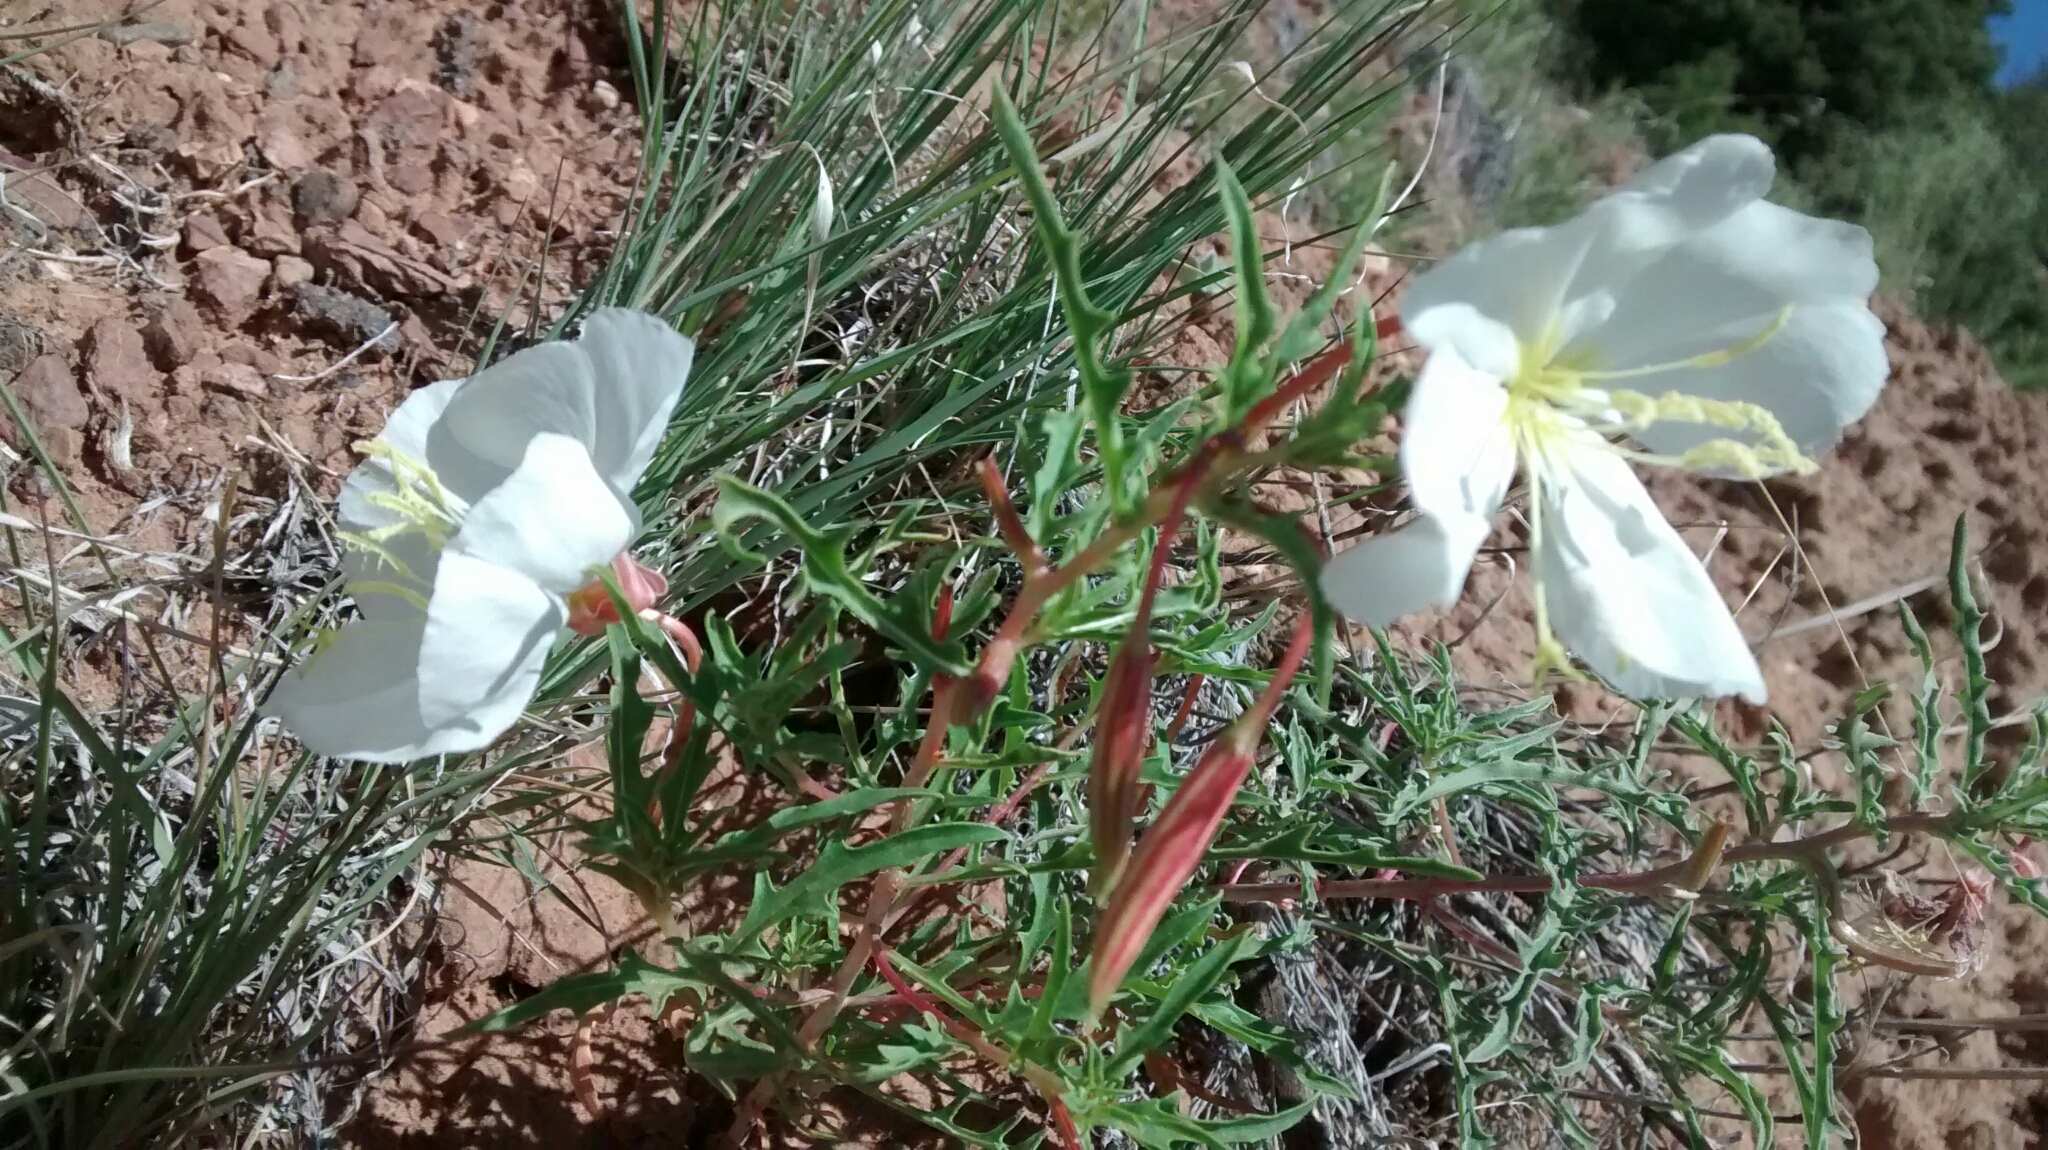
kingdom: Plantae
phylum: Tracheophyta
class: Magnoliopsida
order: Myrtales
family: Onagraceae
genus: Oenothera
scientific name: Oenothera pallida
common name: Pale evening-primrose
